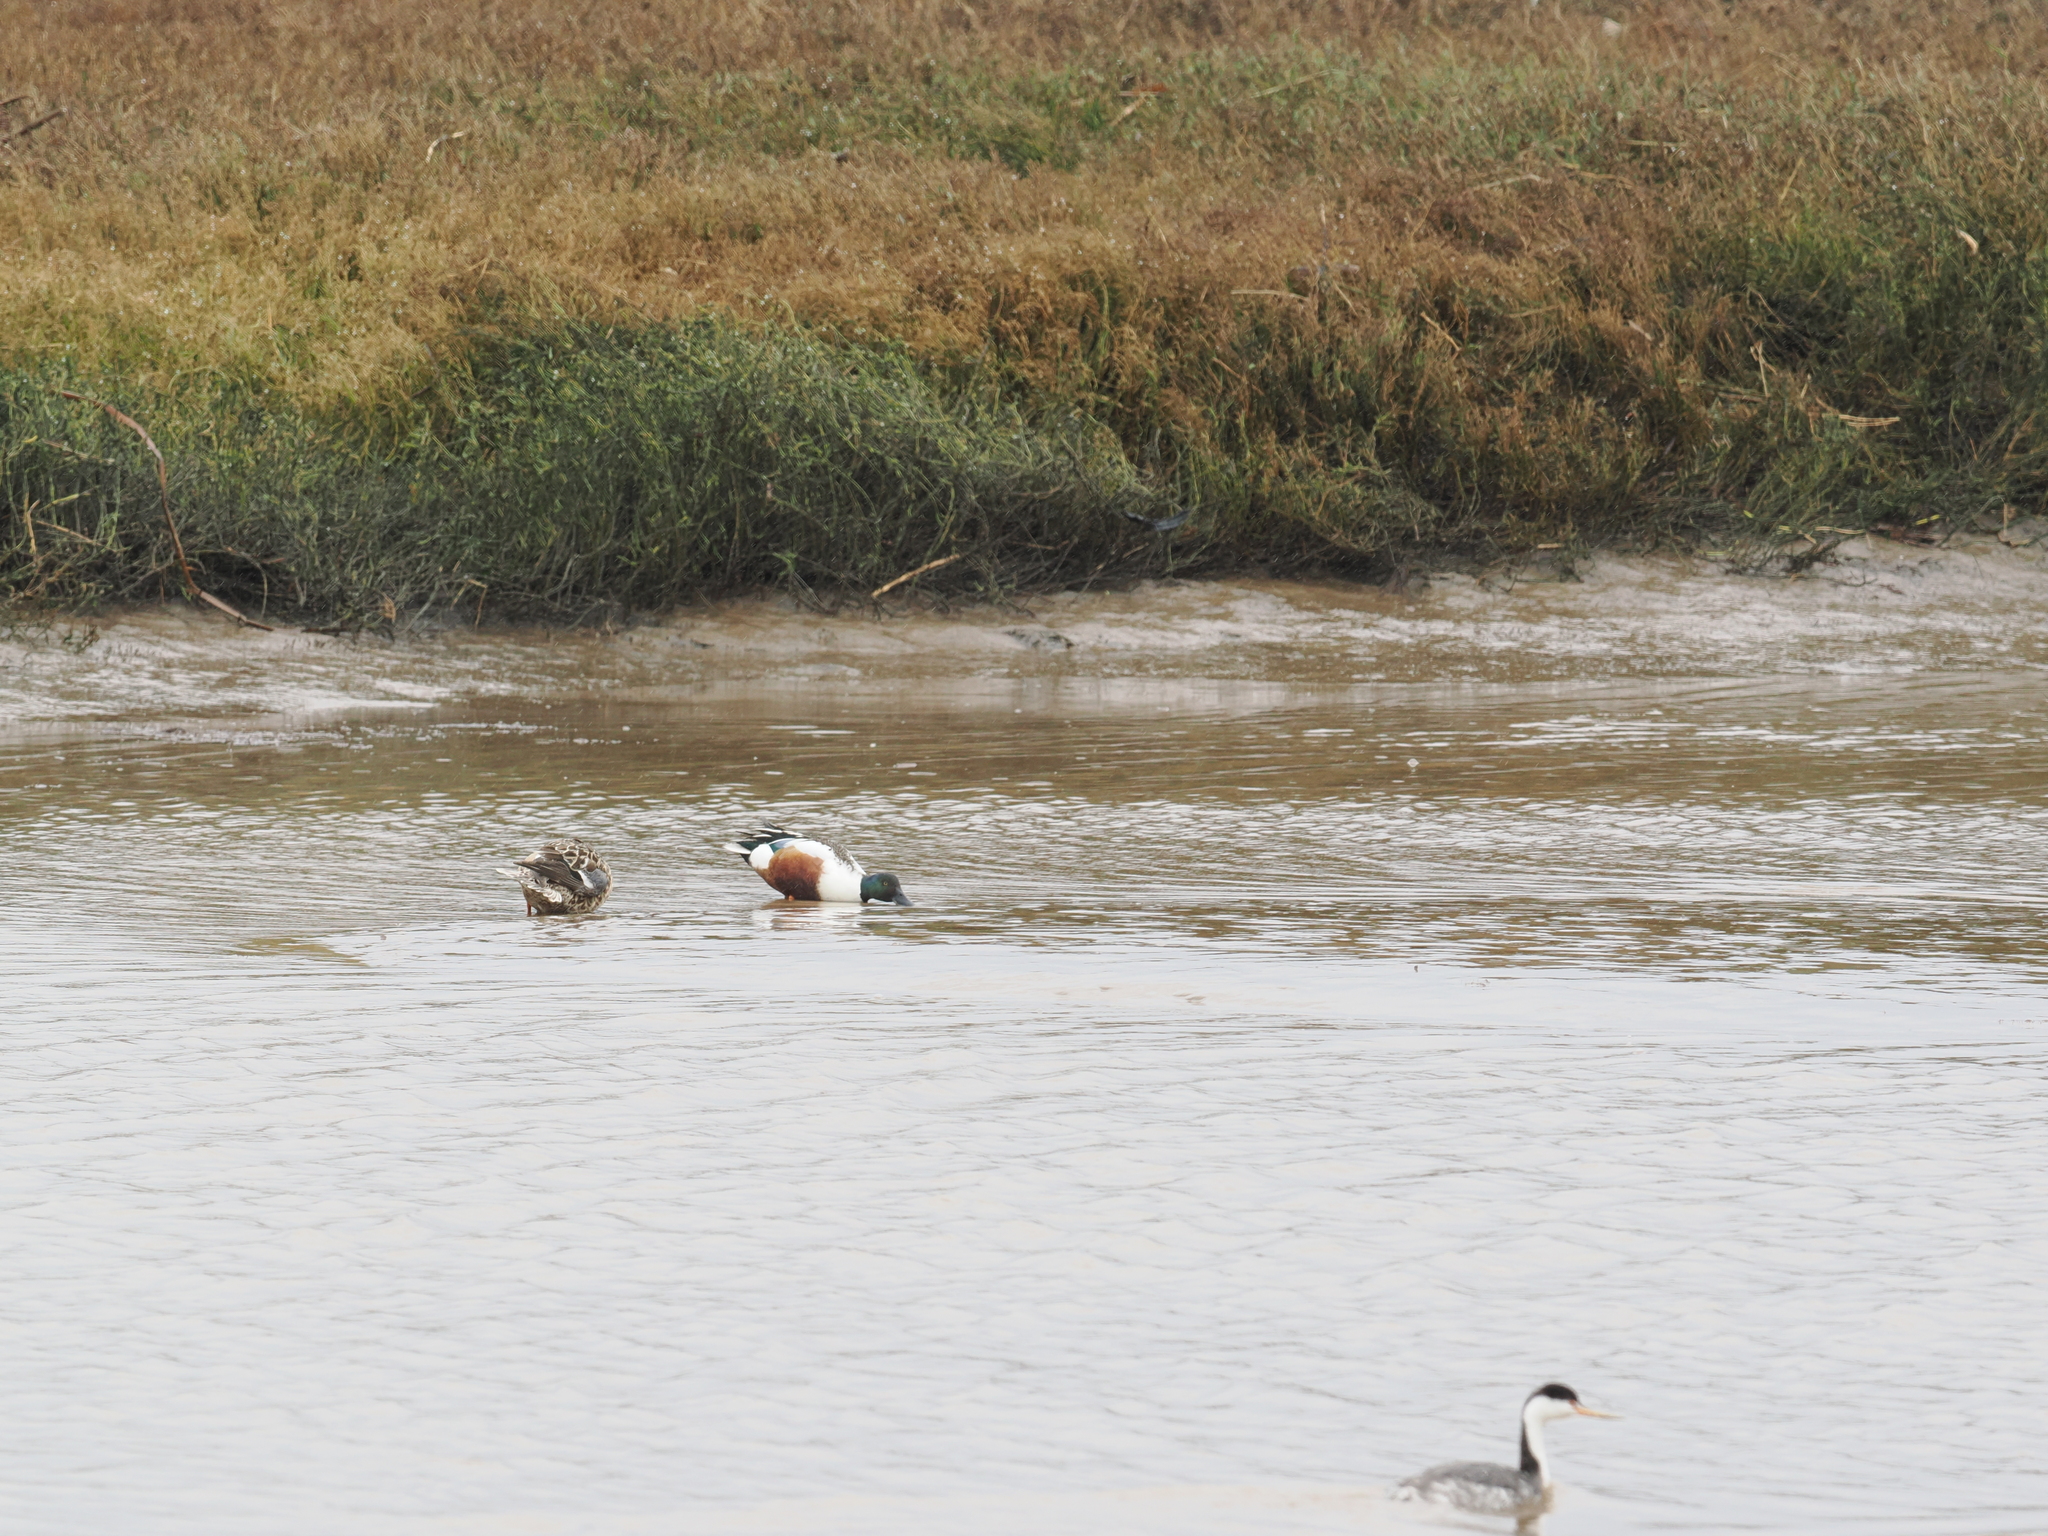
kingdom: Animalia
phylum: Chordata
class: Aves
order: Anseriformes
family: Anatidae
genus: Spatula
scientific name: Spatula clypeata
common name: Northern shoveler
